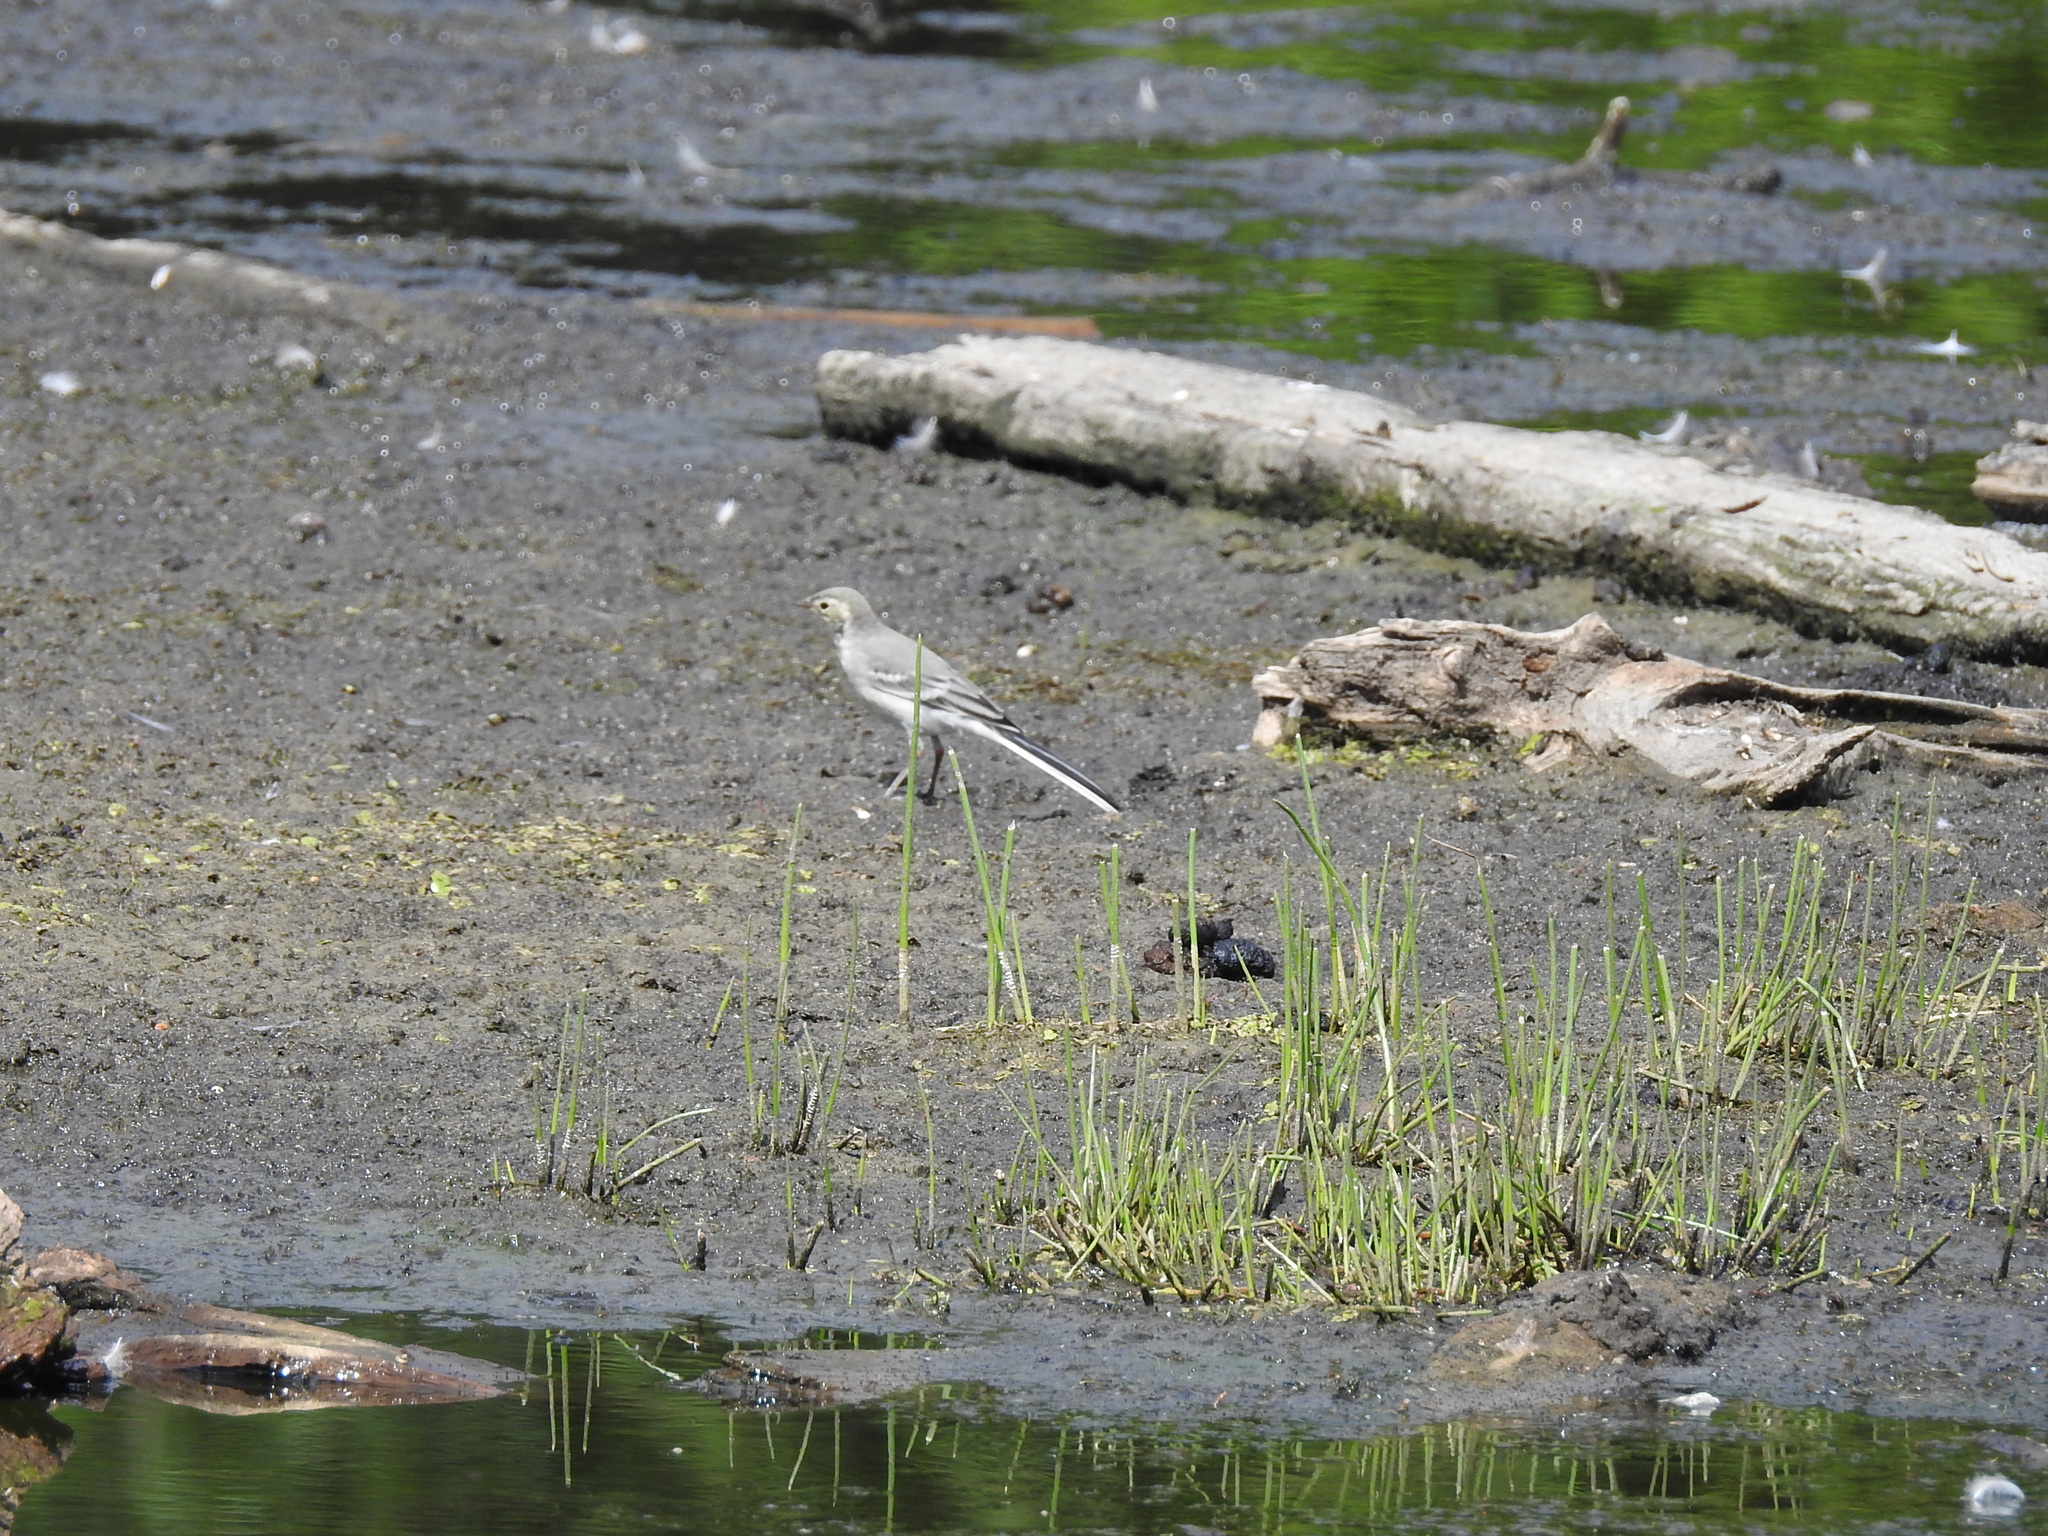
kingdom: Animalia
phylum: Chordata
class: Aves
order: Passeriformes
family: Motacillidae
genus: Motacilla
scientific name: Motacilla alba
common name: White wagtail
